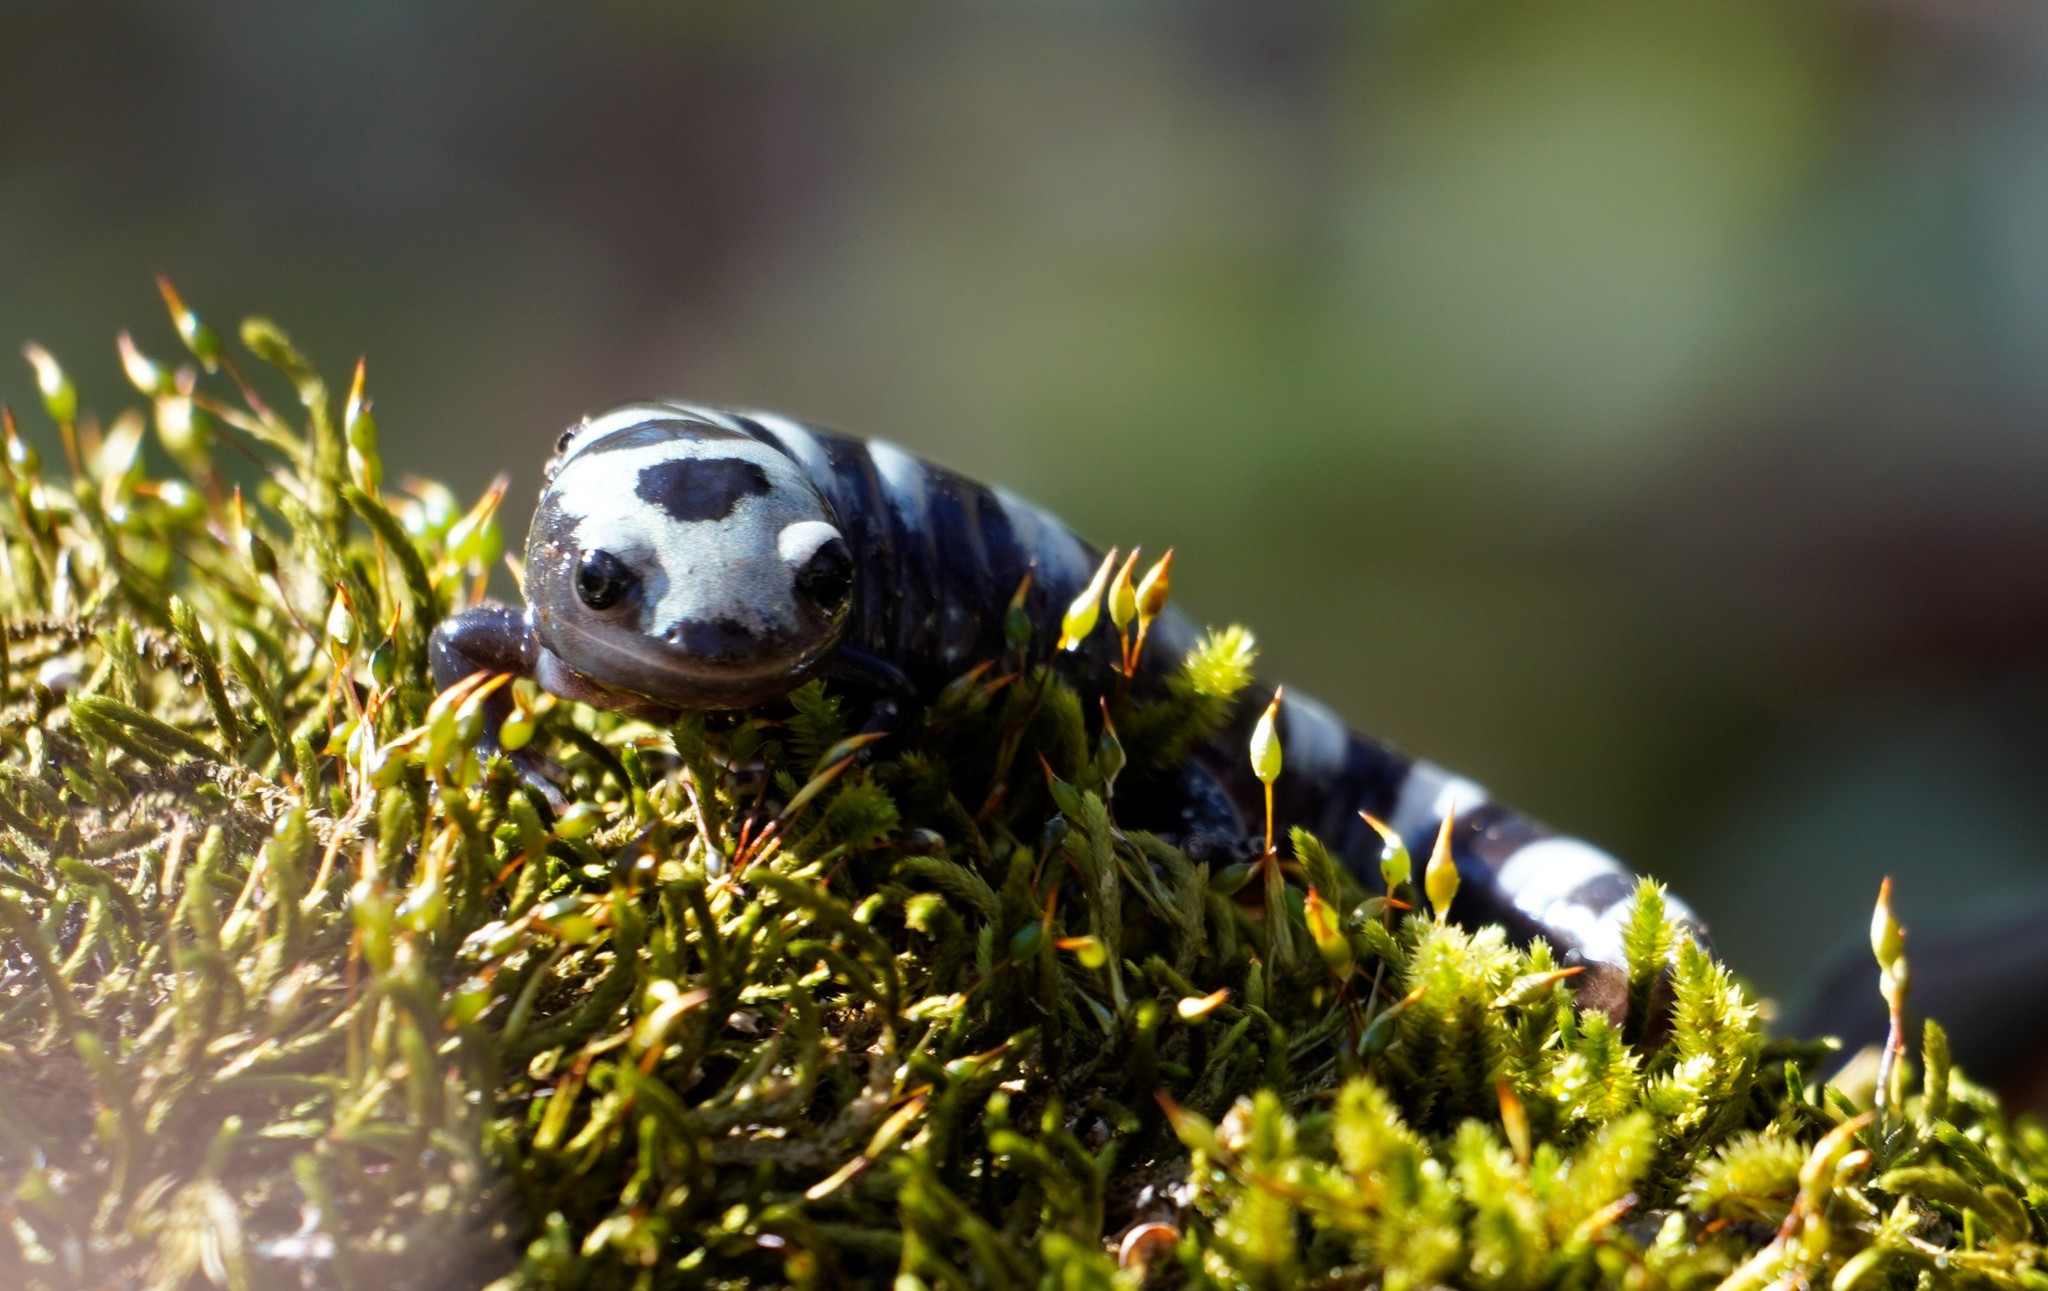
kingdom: Animalia
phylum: Chordata
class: Amphibia
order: Caudata
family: Ambystomatidae
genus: Ambystoma
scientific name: Ambystoma opacum
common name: Marbled salamander
